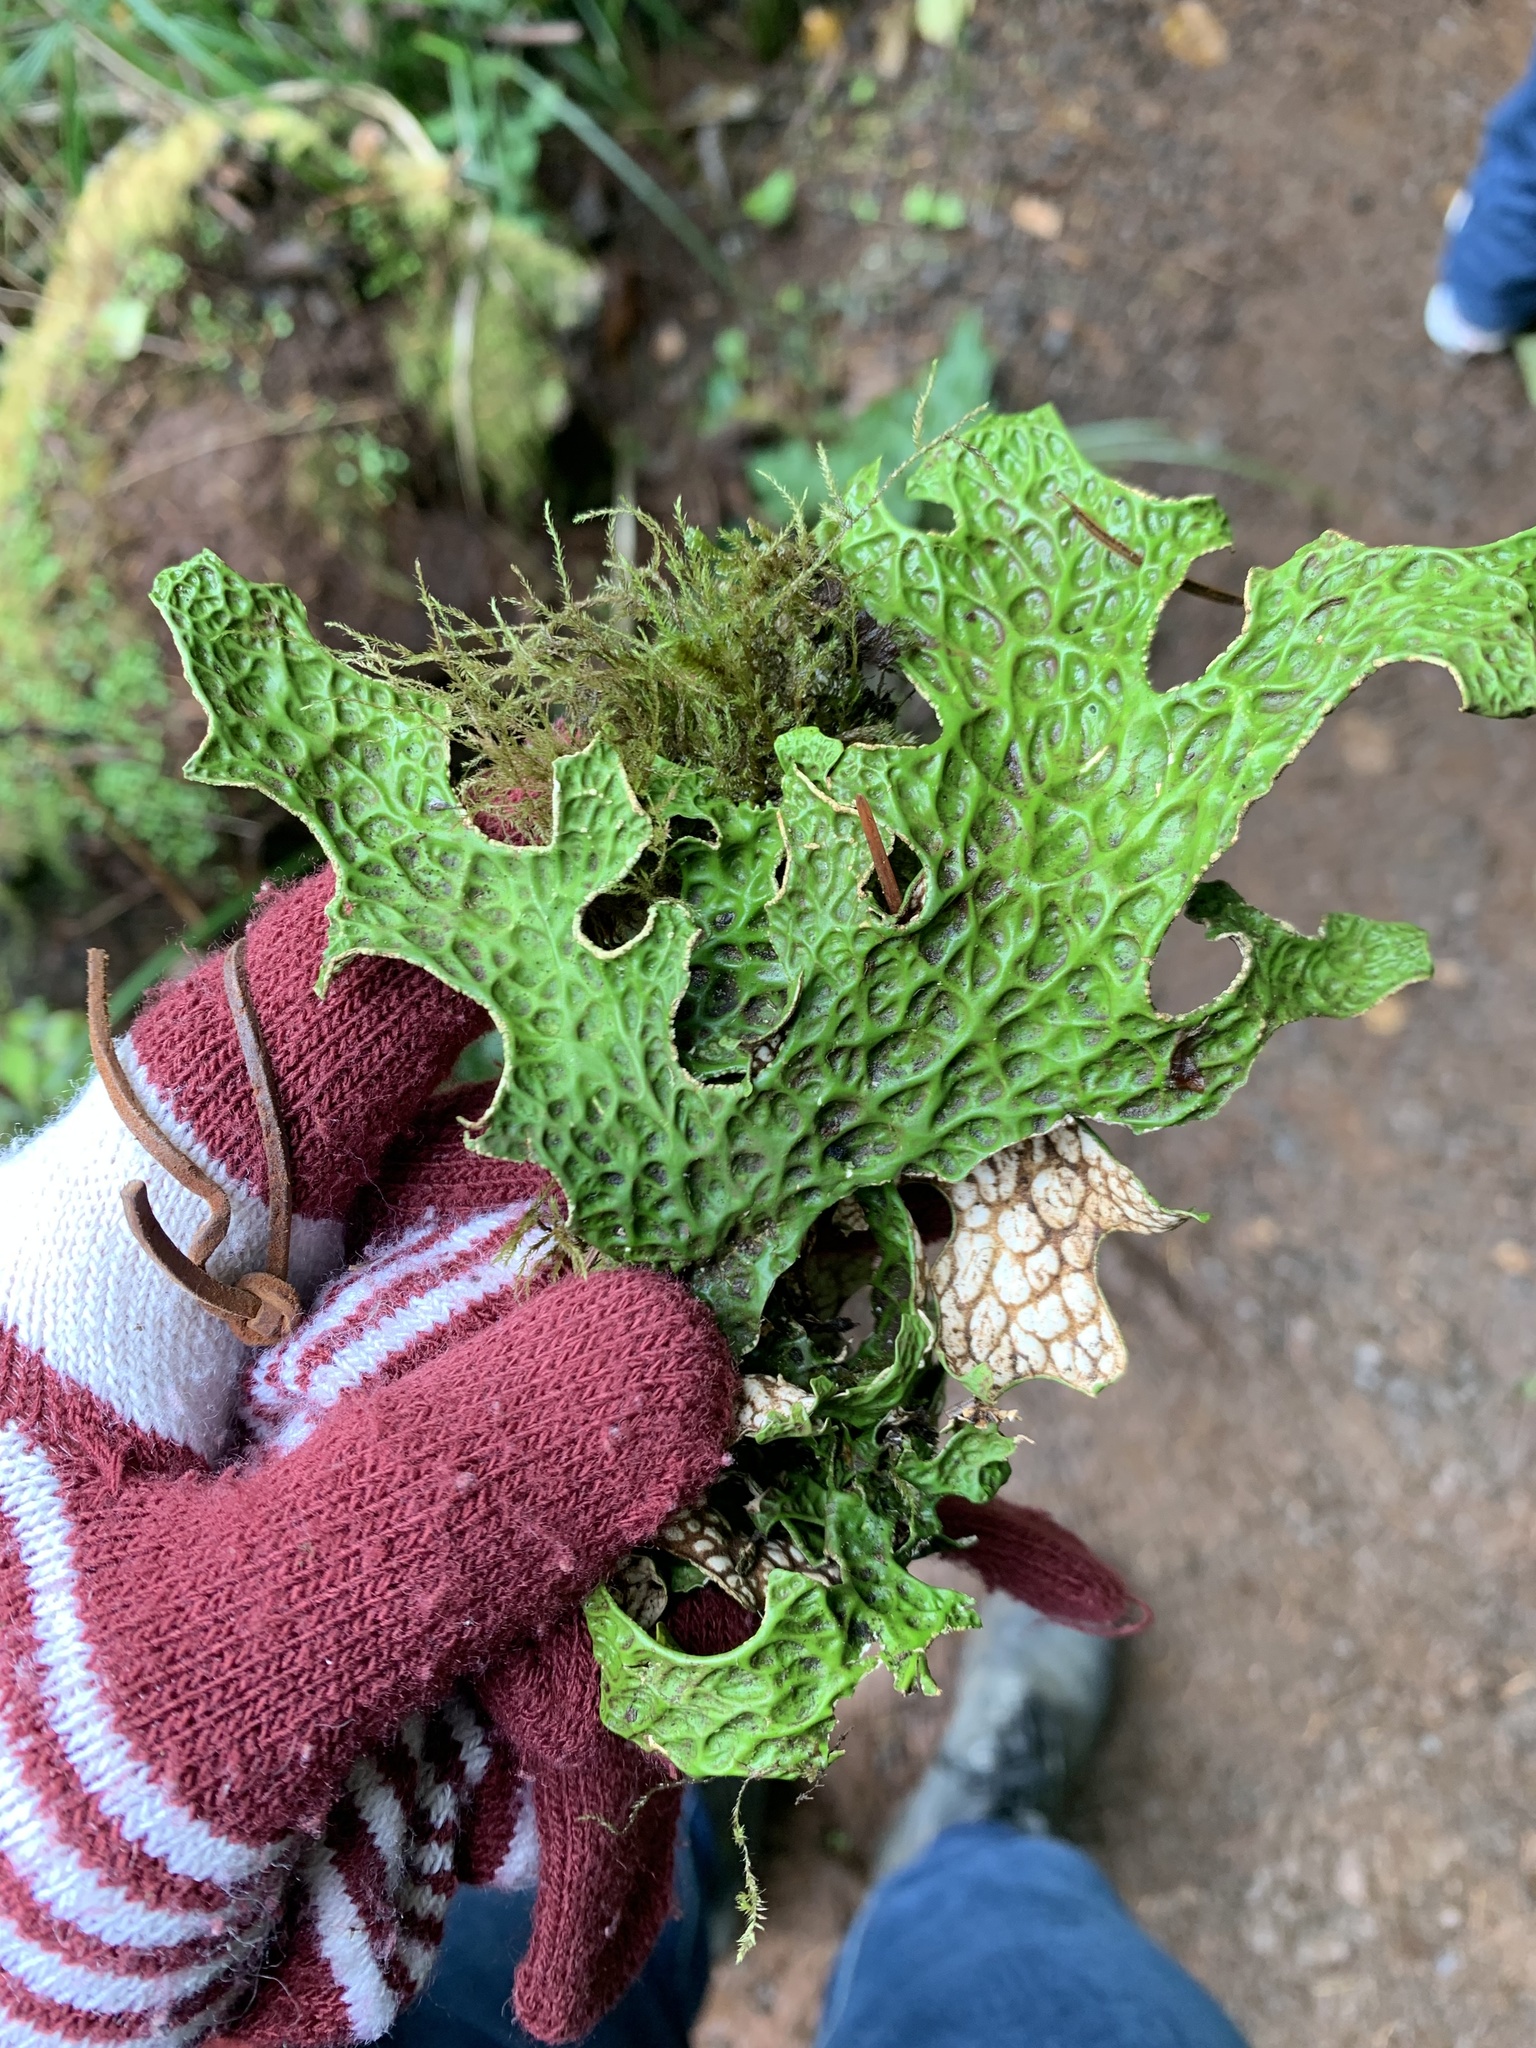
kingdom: Fungi
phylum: Ascomycota
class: Lecanoromycetes
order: Peltigerales
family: Lobariaceae
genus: Lobaria
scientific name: Lobaria pulmonaria
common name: Lungwort
